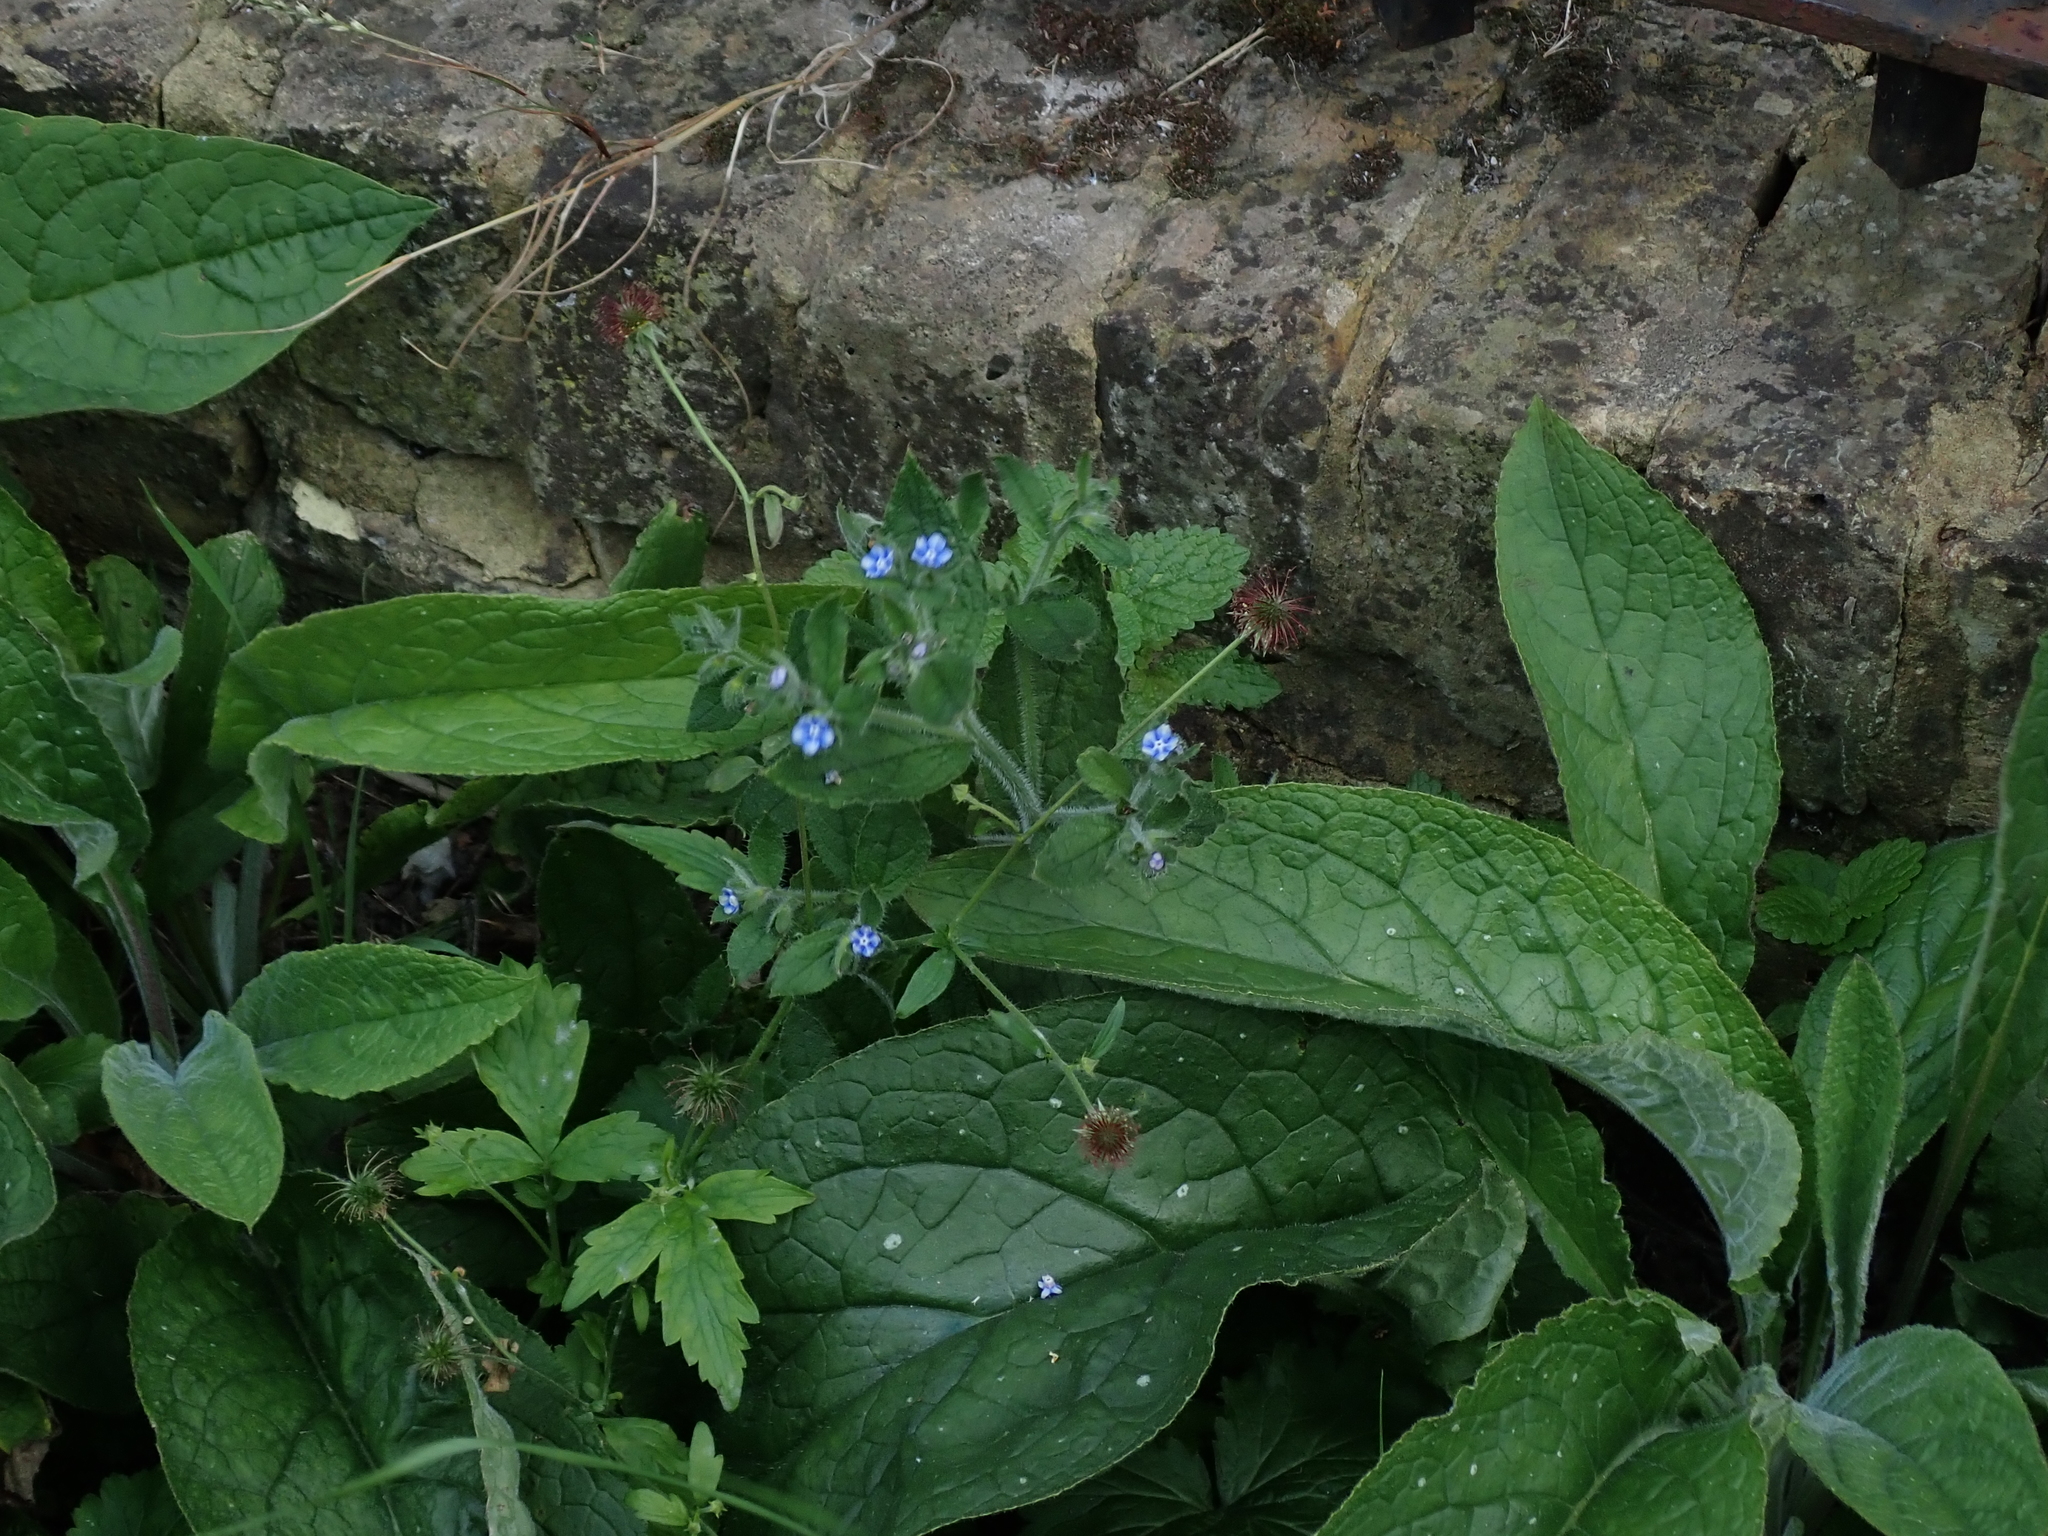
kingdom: Plantae
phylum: Tracheophyta
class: Magnoliopsida
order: Boraginales
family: Boraginaceae
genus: Pentaglottis
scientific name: Pentaglottis sempervirens
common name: Green alkanet
